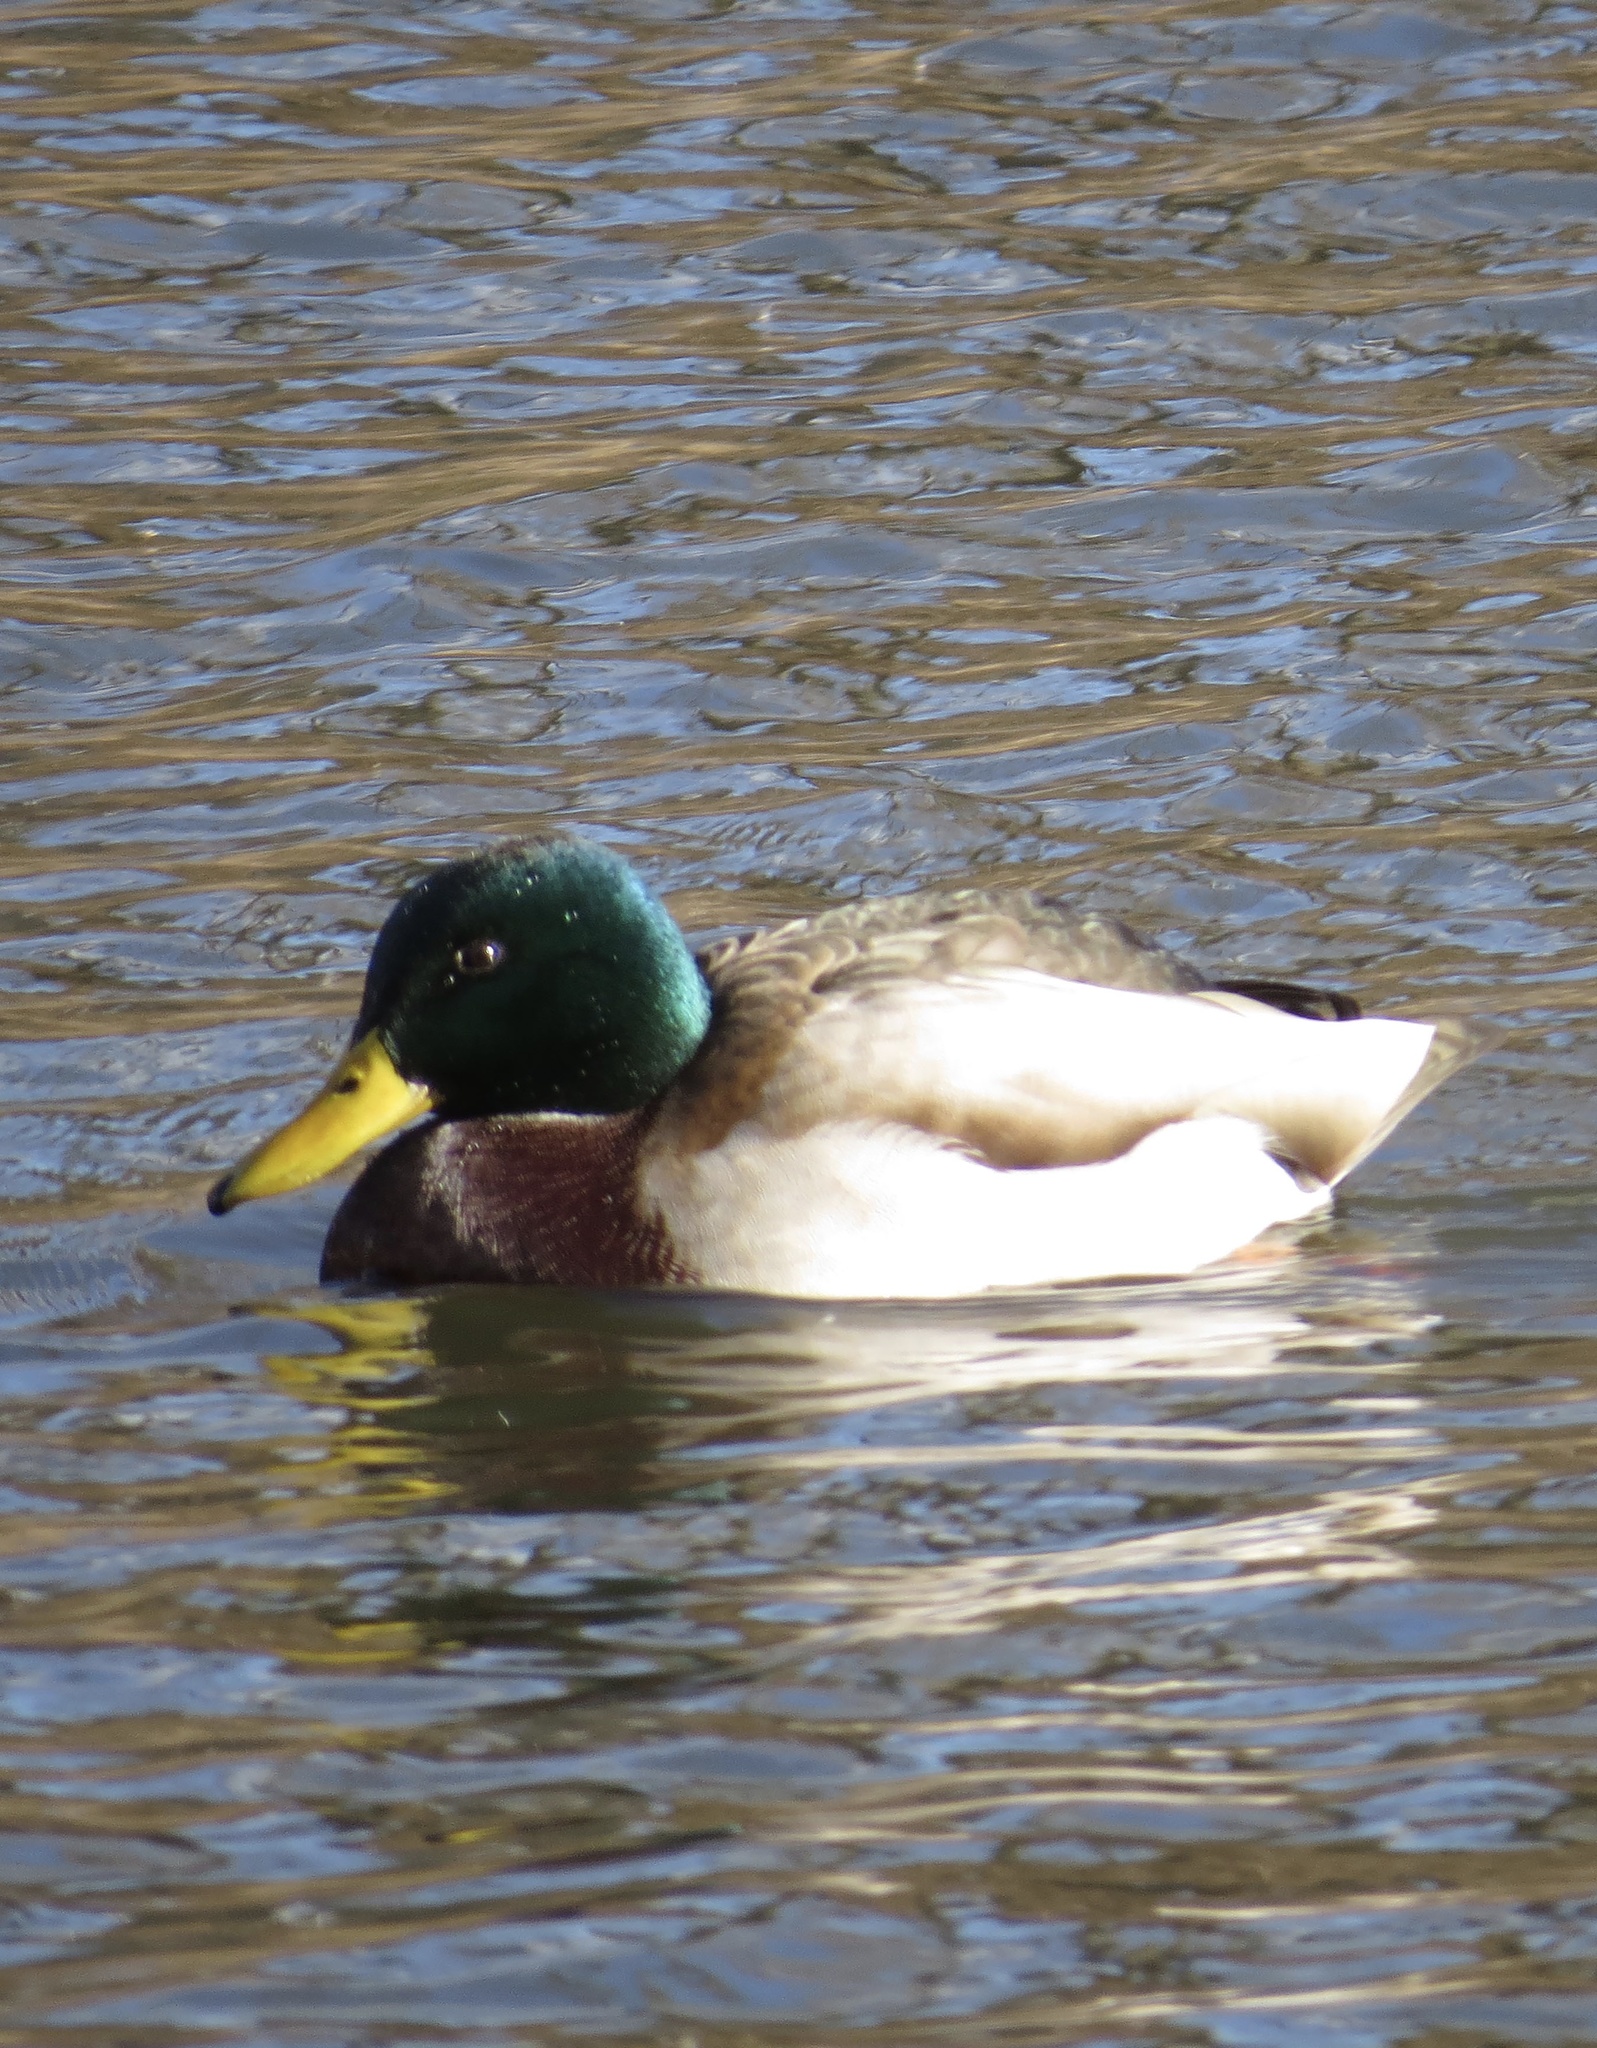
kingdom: Animalia
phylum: Chordata
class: Aves
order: Anseriformes
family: Anatidae
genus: Anas
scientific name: Anas platyrhynchos
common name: Mallard
